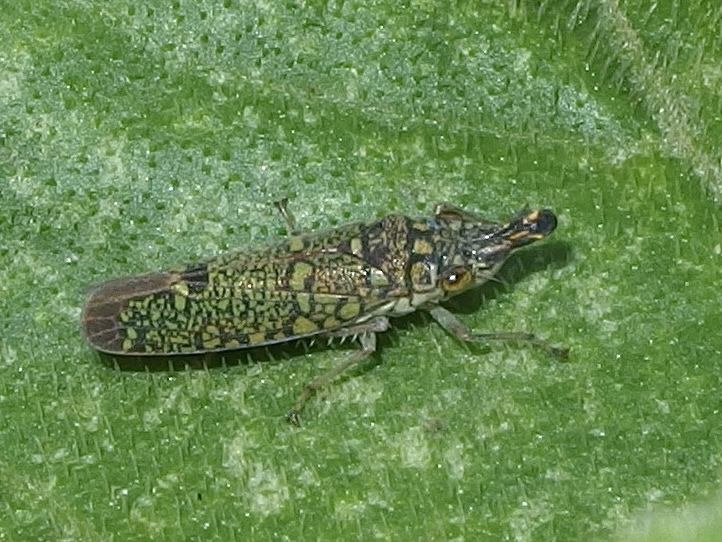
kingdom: Animalia
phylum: Arthropoda
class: Insecta
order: Hemiptera
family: Cicadellidae
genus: Ichthyobelus
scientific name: Ichthyobelus bellicosus
